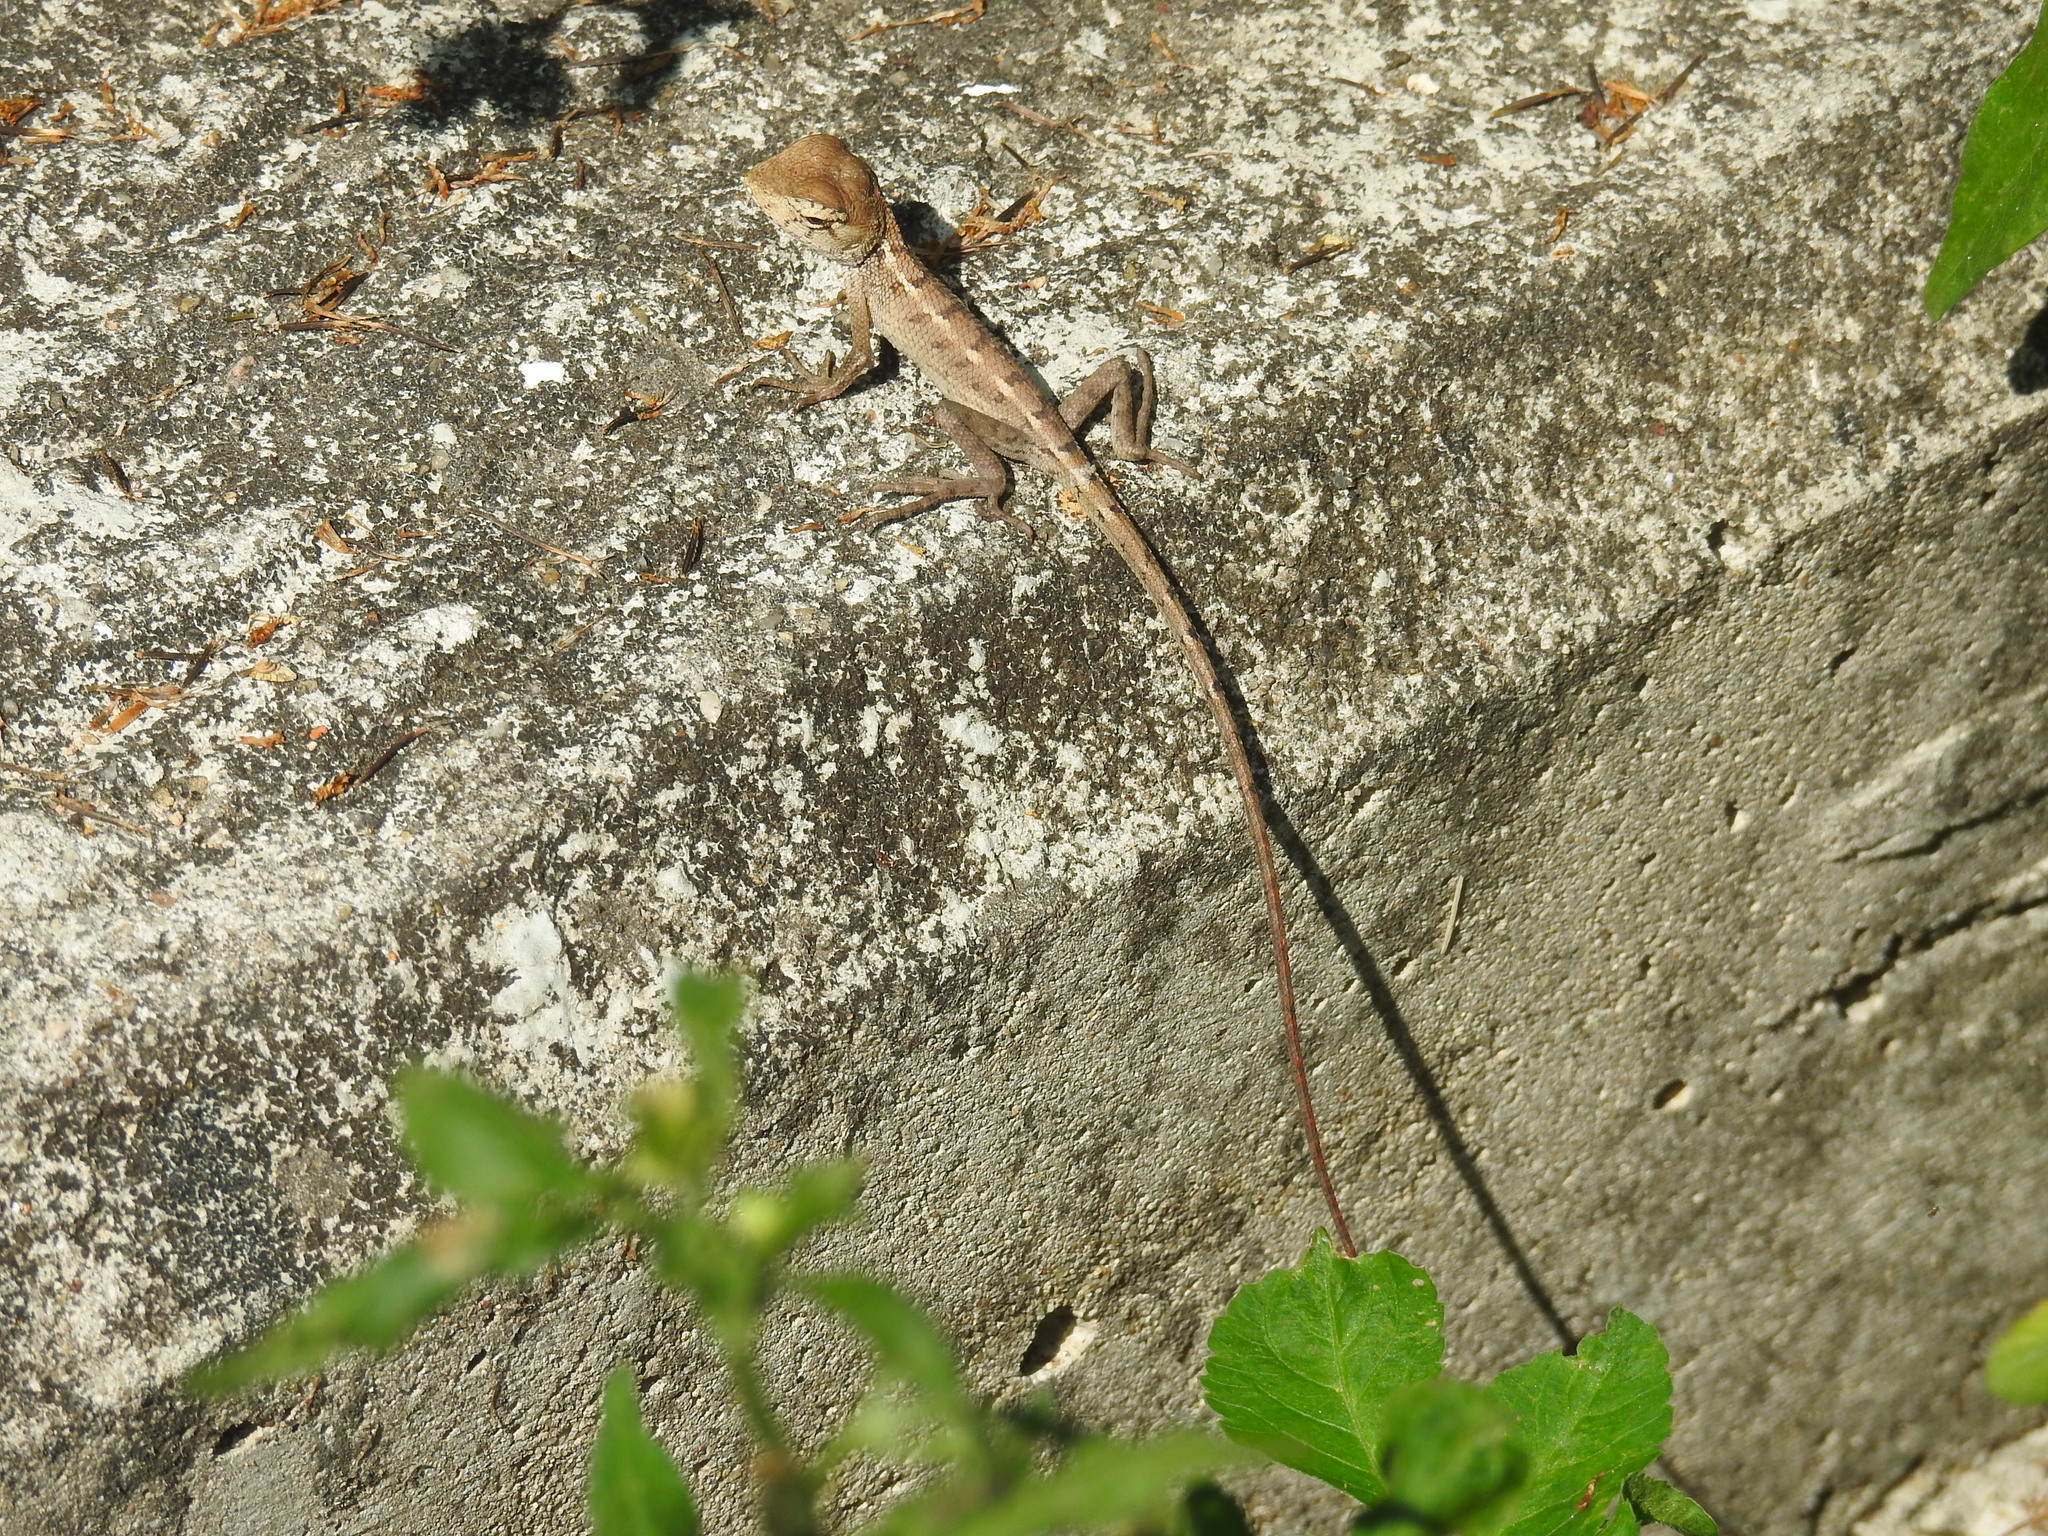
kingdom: Animalia
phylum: Chordata
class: Squamata
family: Agamidae
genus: Calotes
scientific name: Calotes versicolor
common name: Oriental garden lizard
